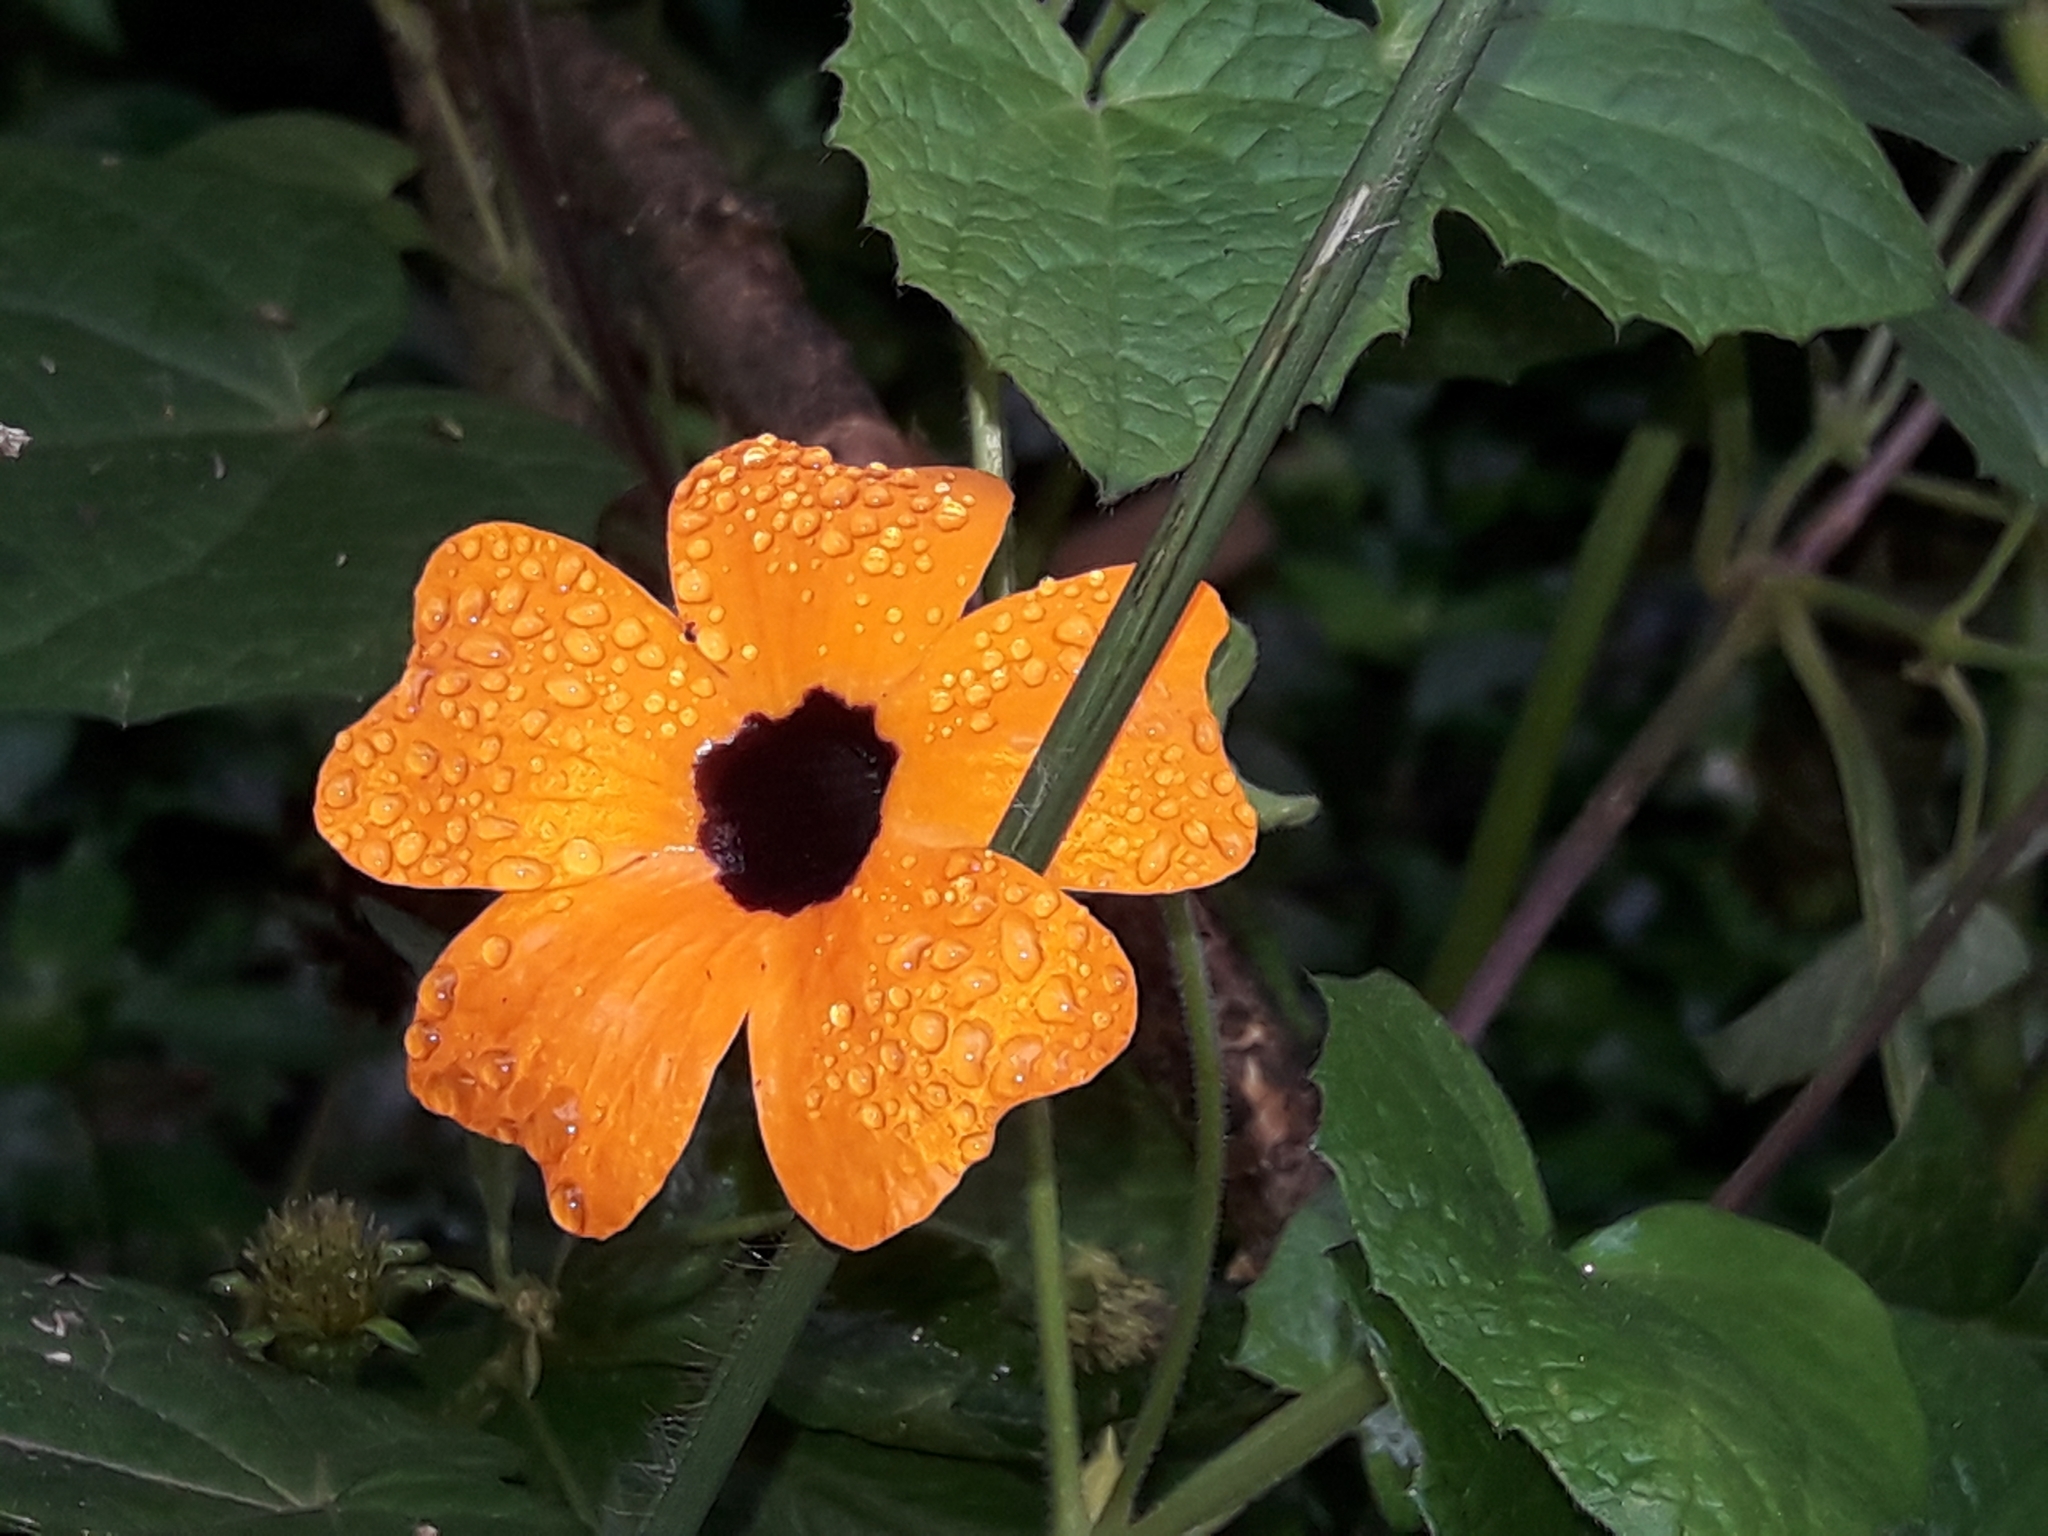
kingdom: Plantae
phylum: Tracheophyta
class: Magnoliopsida
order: Lamiales
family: Acanthaceae
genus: Thunbergia
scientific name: Thunbergia alata
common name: Blackeyed susan vine
